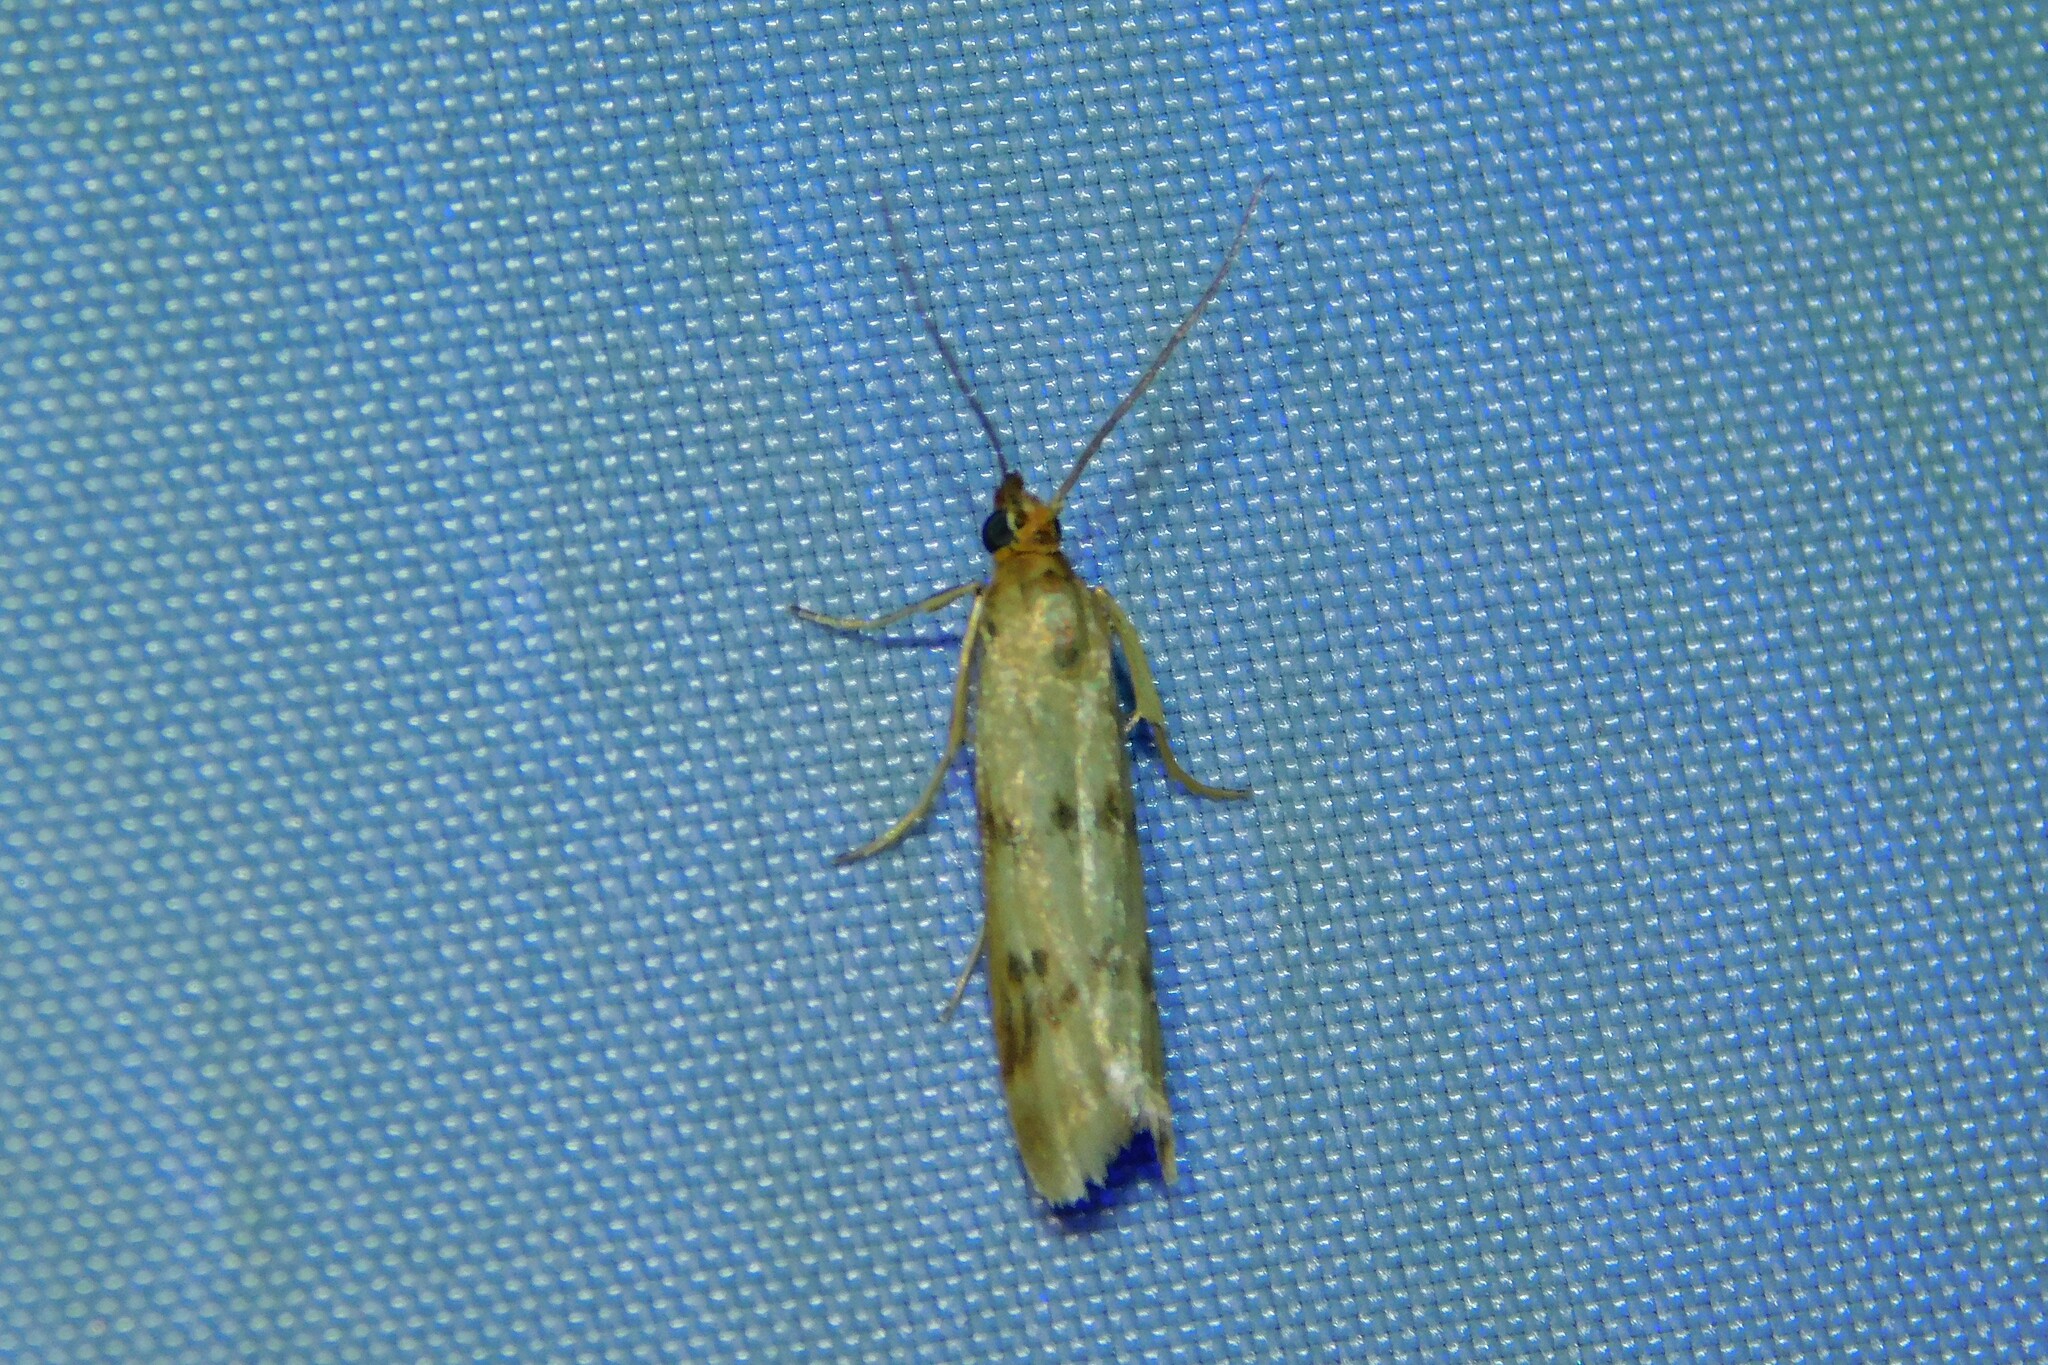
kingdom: Animalia
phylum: Arthropoda
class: Insecta
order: Lepidoptera
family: Pyralidae
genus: Homoeosoma
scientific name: Homoeosoma sinuella
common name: Twin-barred knot-horn
